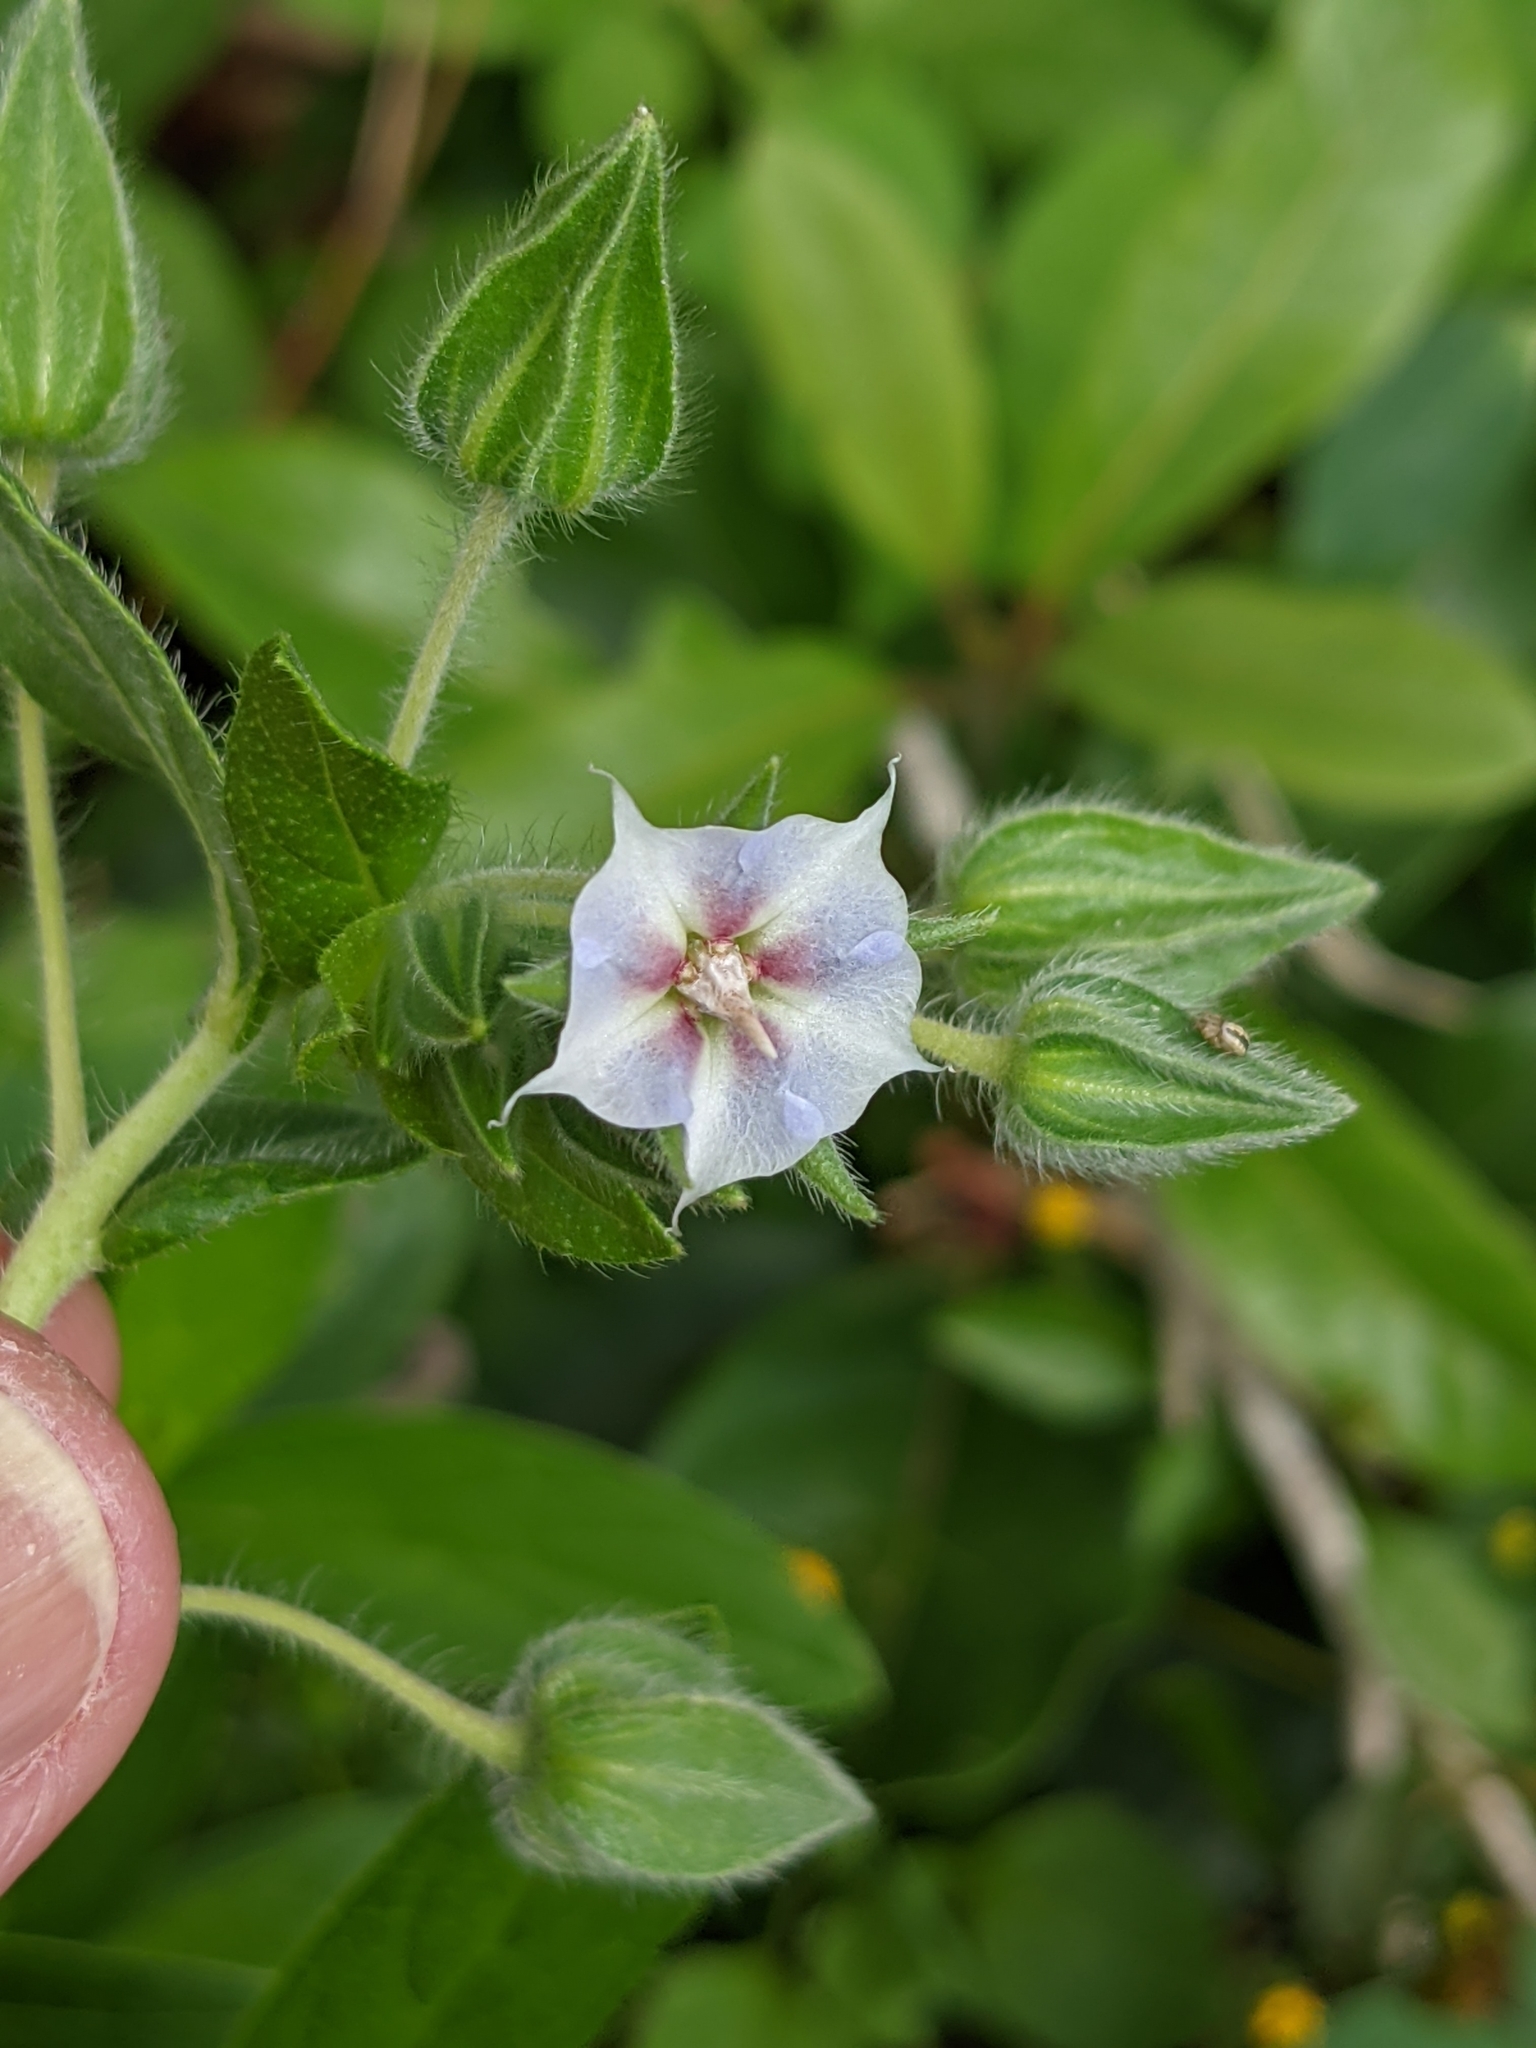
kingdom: Plantae
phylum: Tracheophyta
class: Magnoliopsida
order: Boraginales
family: Boraginaceae
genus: Trichodesma
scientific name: Trichodesma zeylanicum
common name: Camelbush
